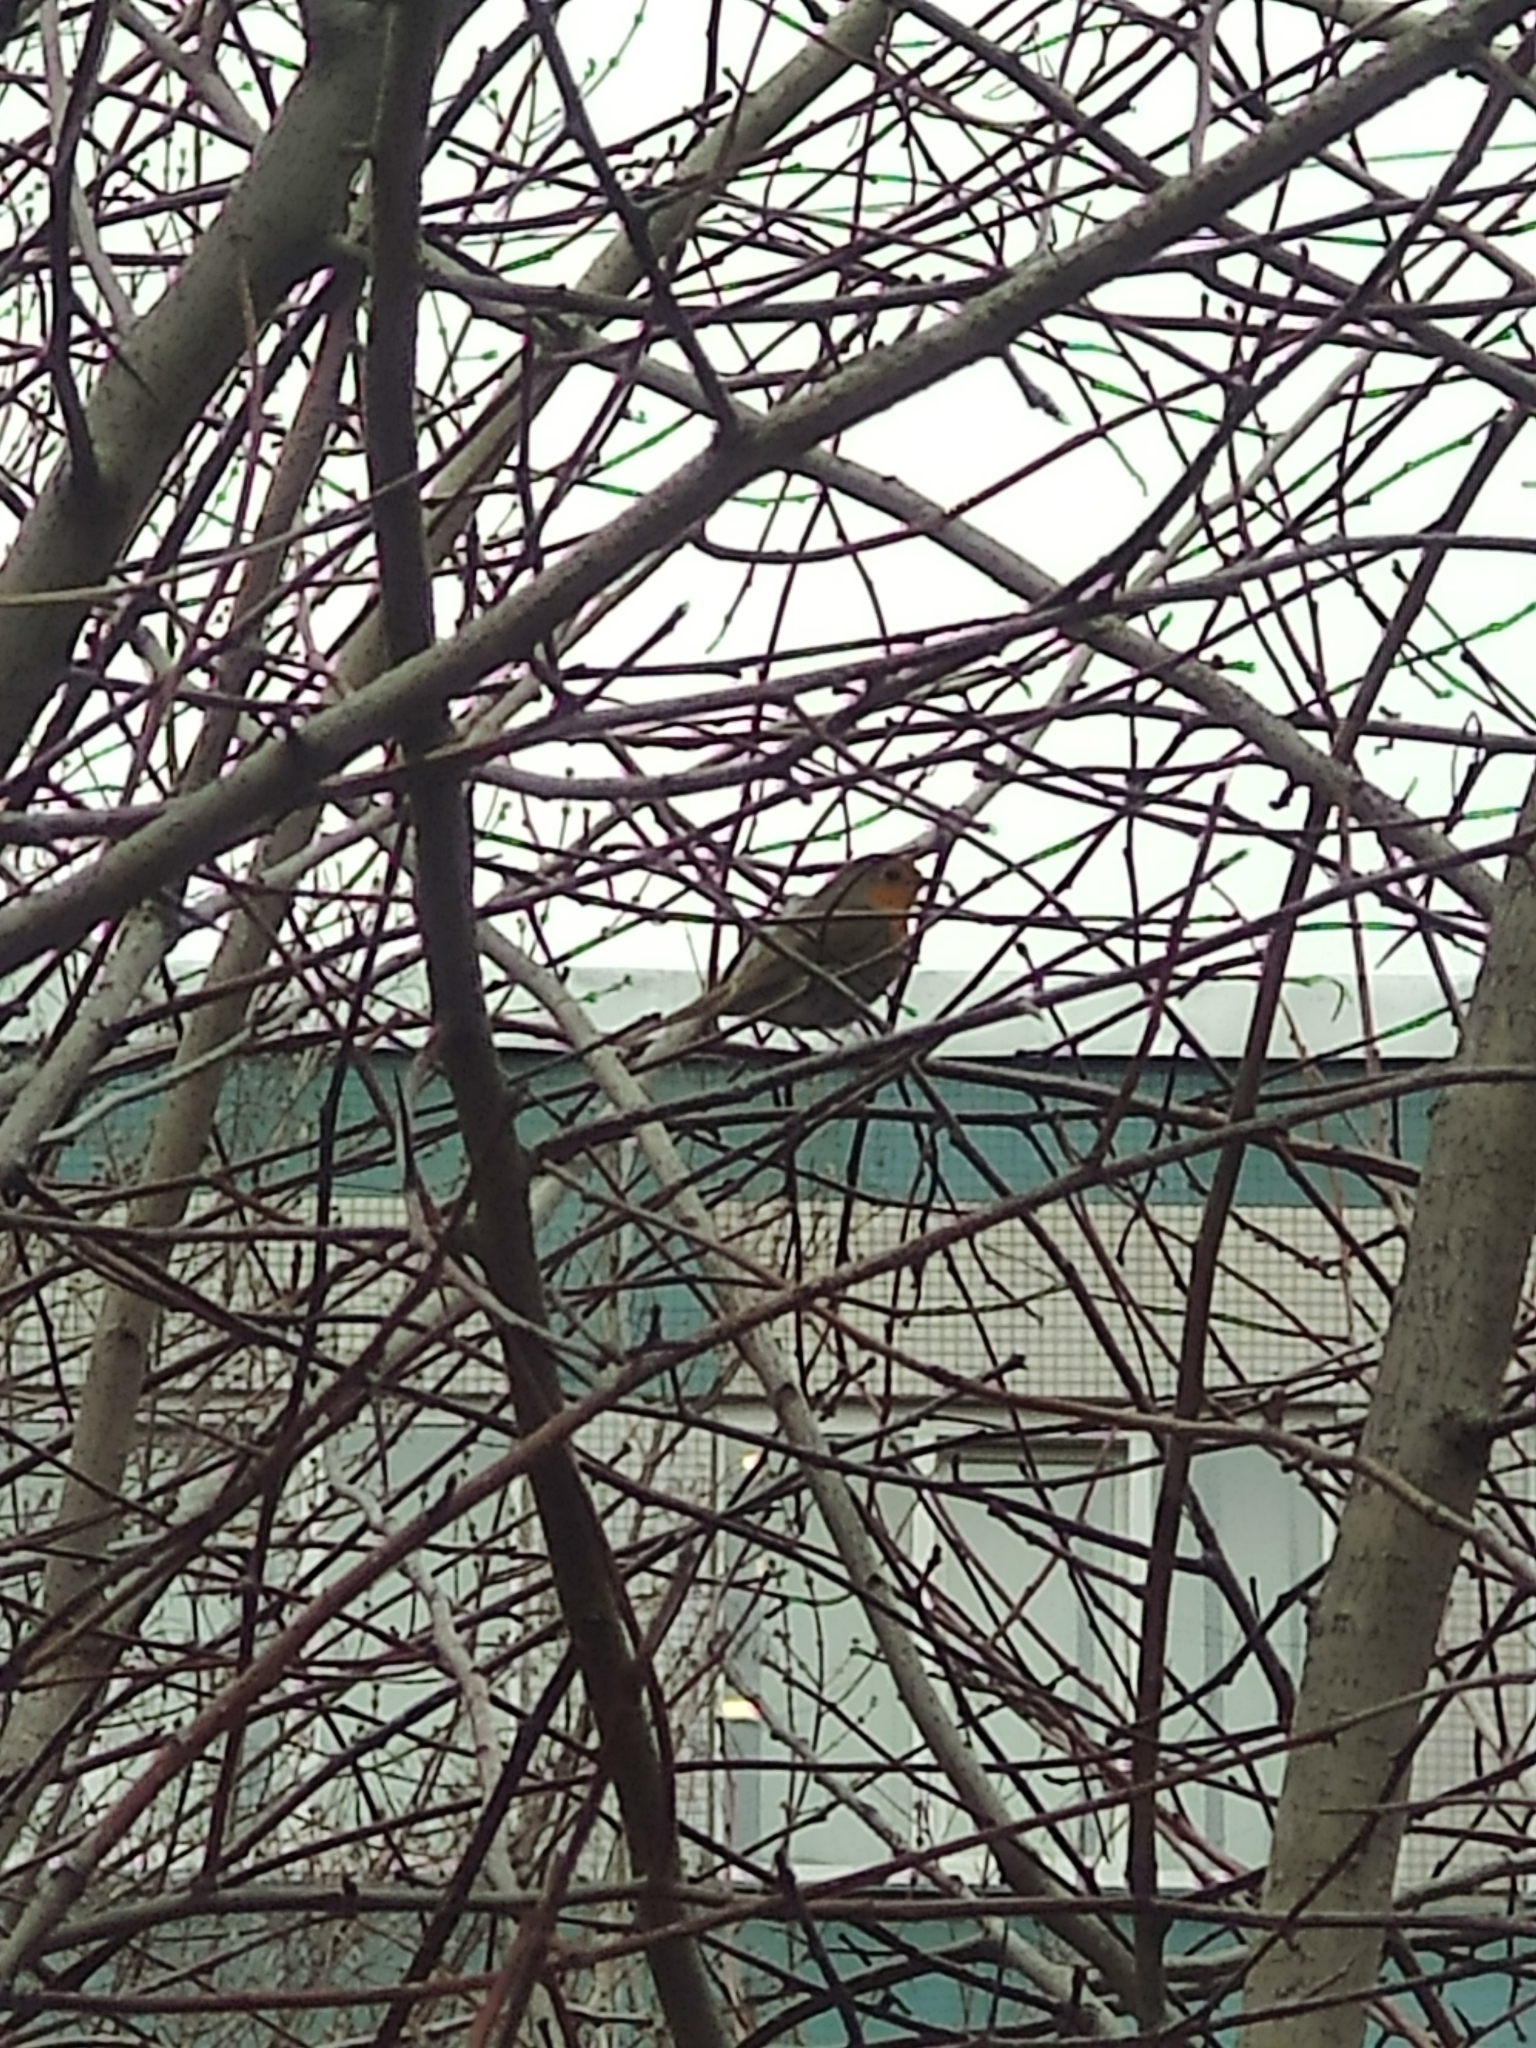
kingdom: Animalia
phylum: Chordata
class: Aves
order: Passeriformes
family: Muscicapidae
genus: Erithacus
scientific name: Erithacus rubecula
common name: European robin
